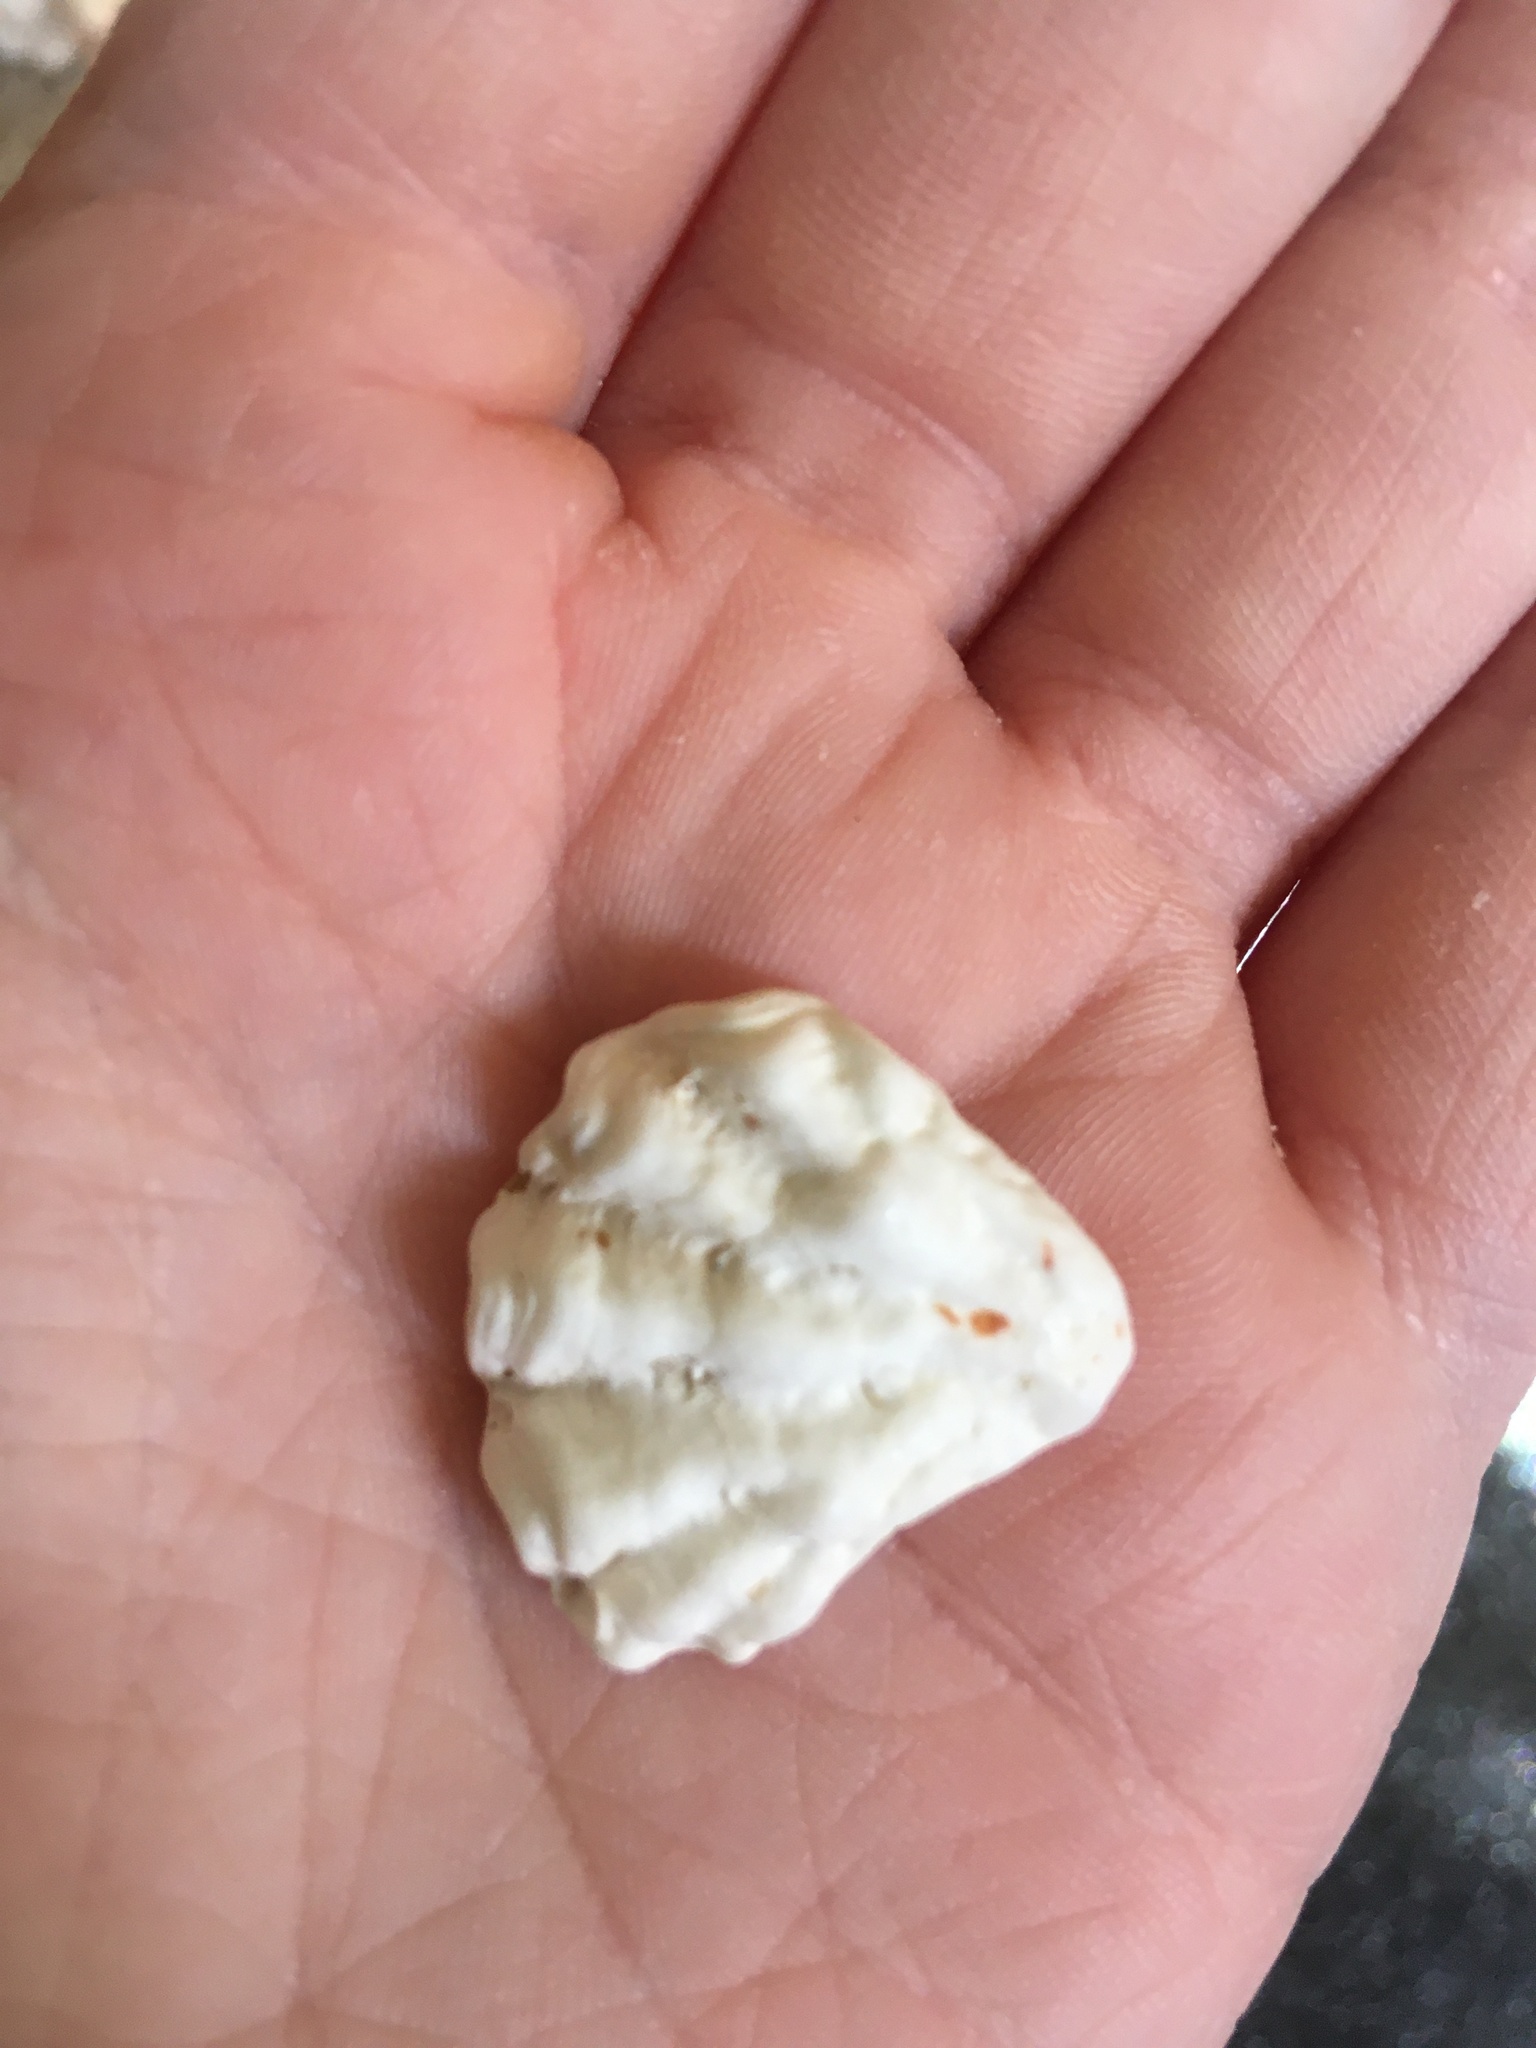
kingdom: Animalia
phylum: Mollusca
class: Bivalvia
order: Pectinida
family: Plicatulidae
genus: Plicatula
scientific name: Plicatula gibbosa
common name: Atlantic kitten's paw
